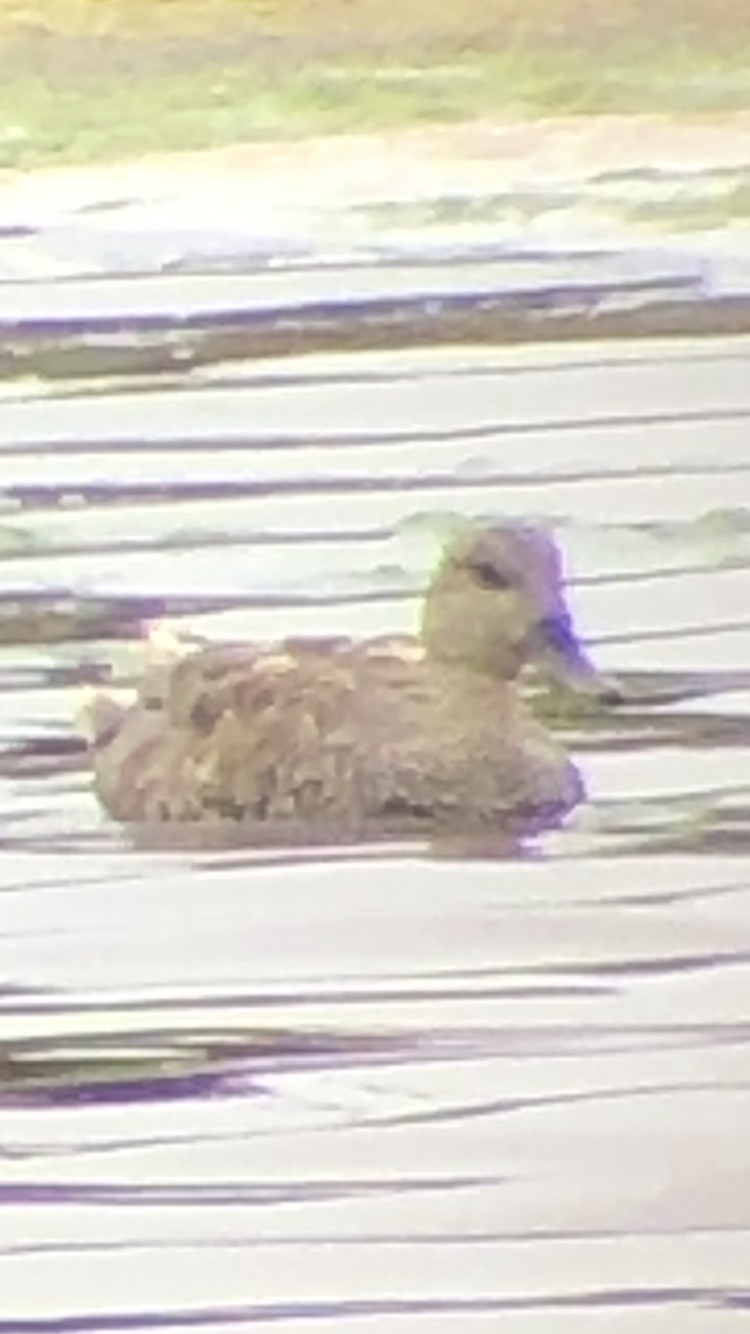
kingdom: Animalia
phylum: Chordata
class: Aves
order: Anseriformes
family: Anatidae
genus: Mareca
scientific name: Mareca strepera
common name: Gadwall
